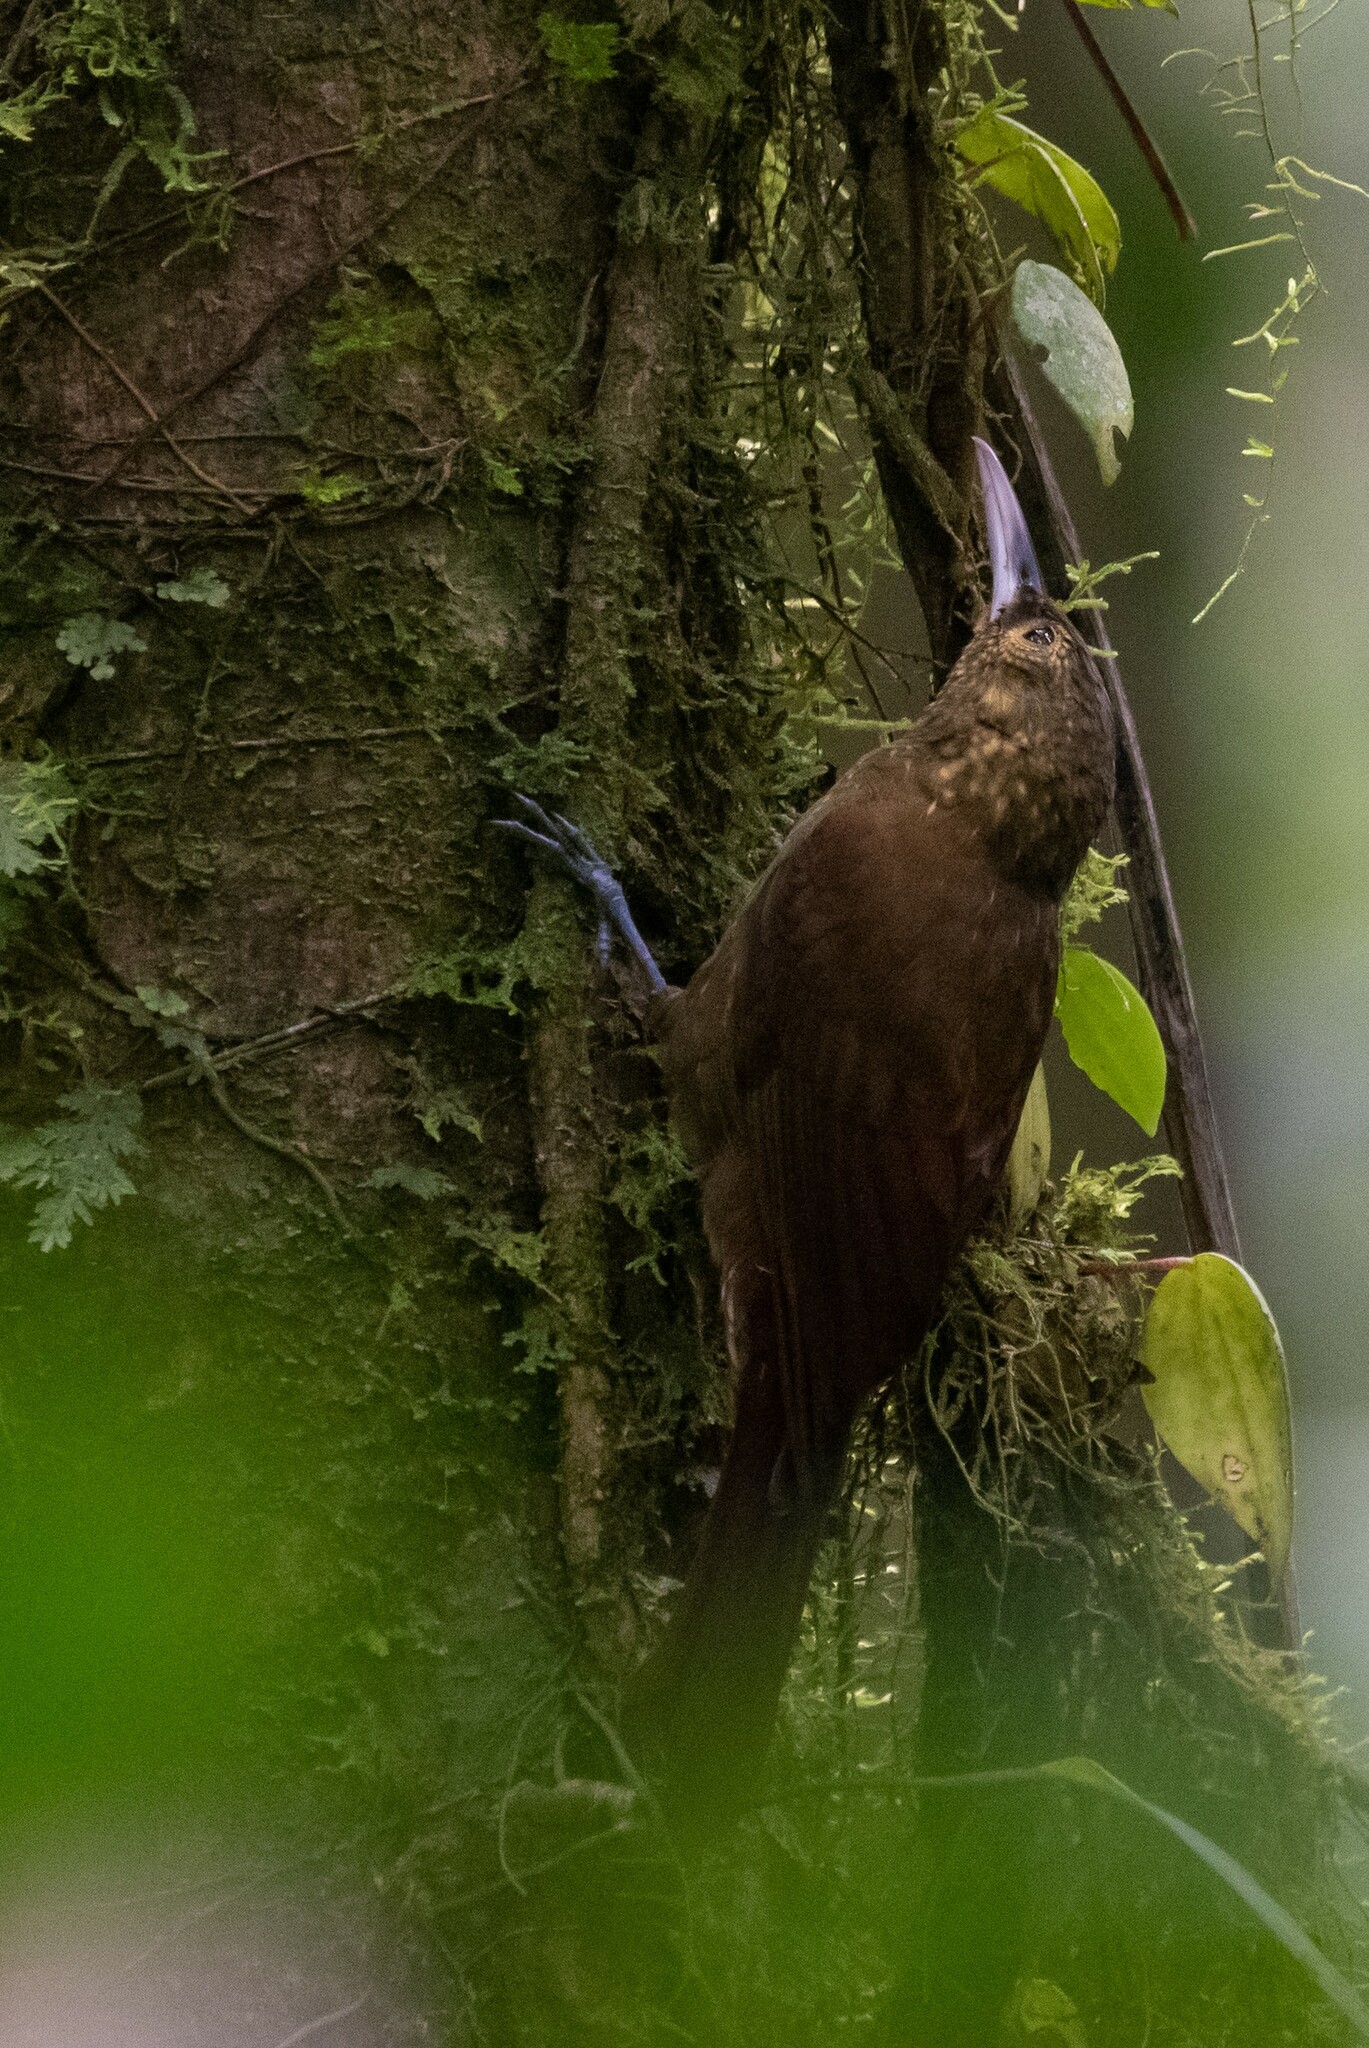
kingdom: Animalia
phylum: Chordata
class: Aves
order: Passeriformes
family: Furnariidae
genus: Xiphorhynchus
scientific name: Xiphorhynchus erythropygius
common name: Spotted woodcreeper
